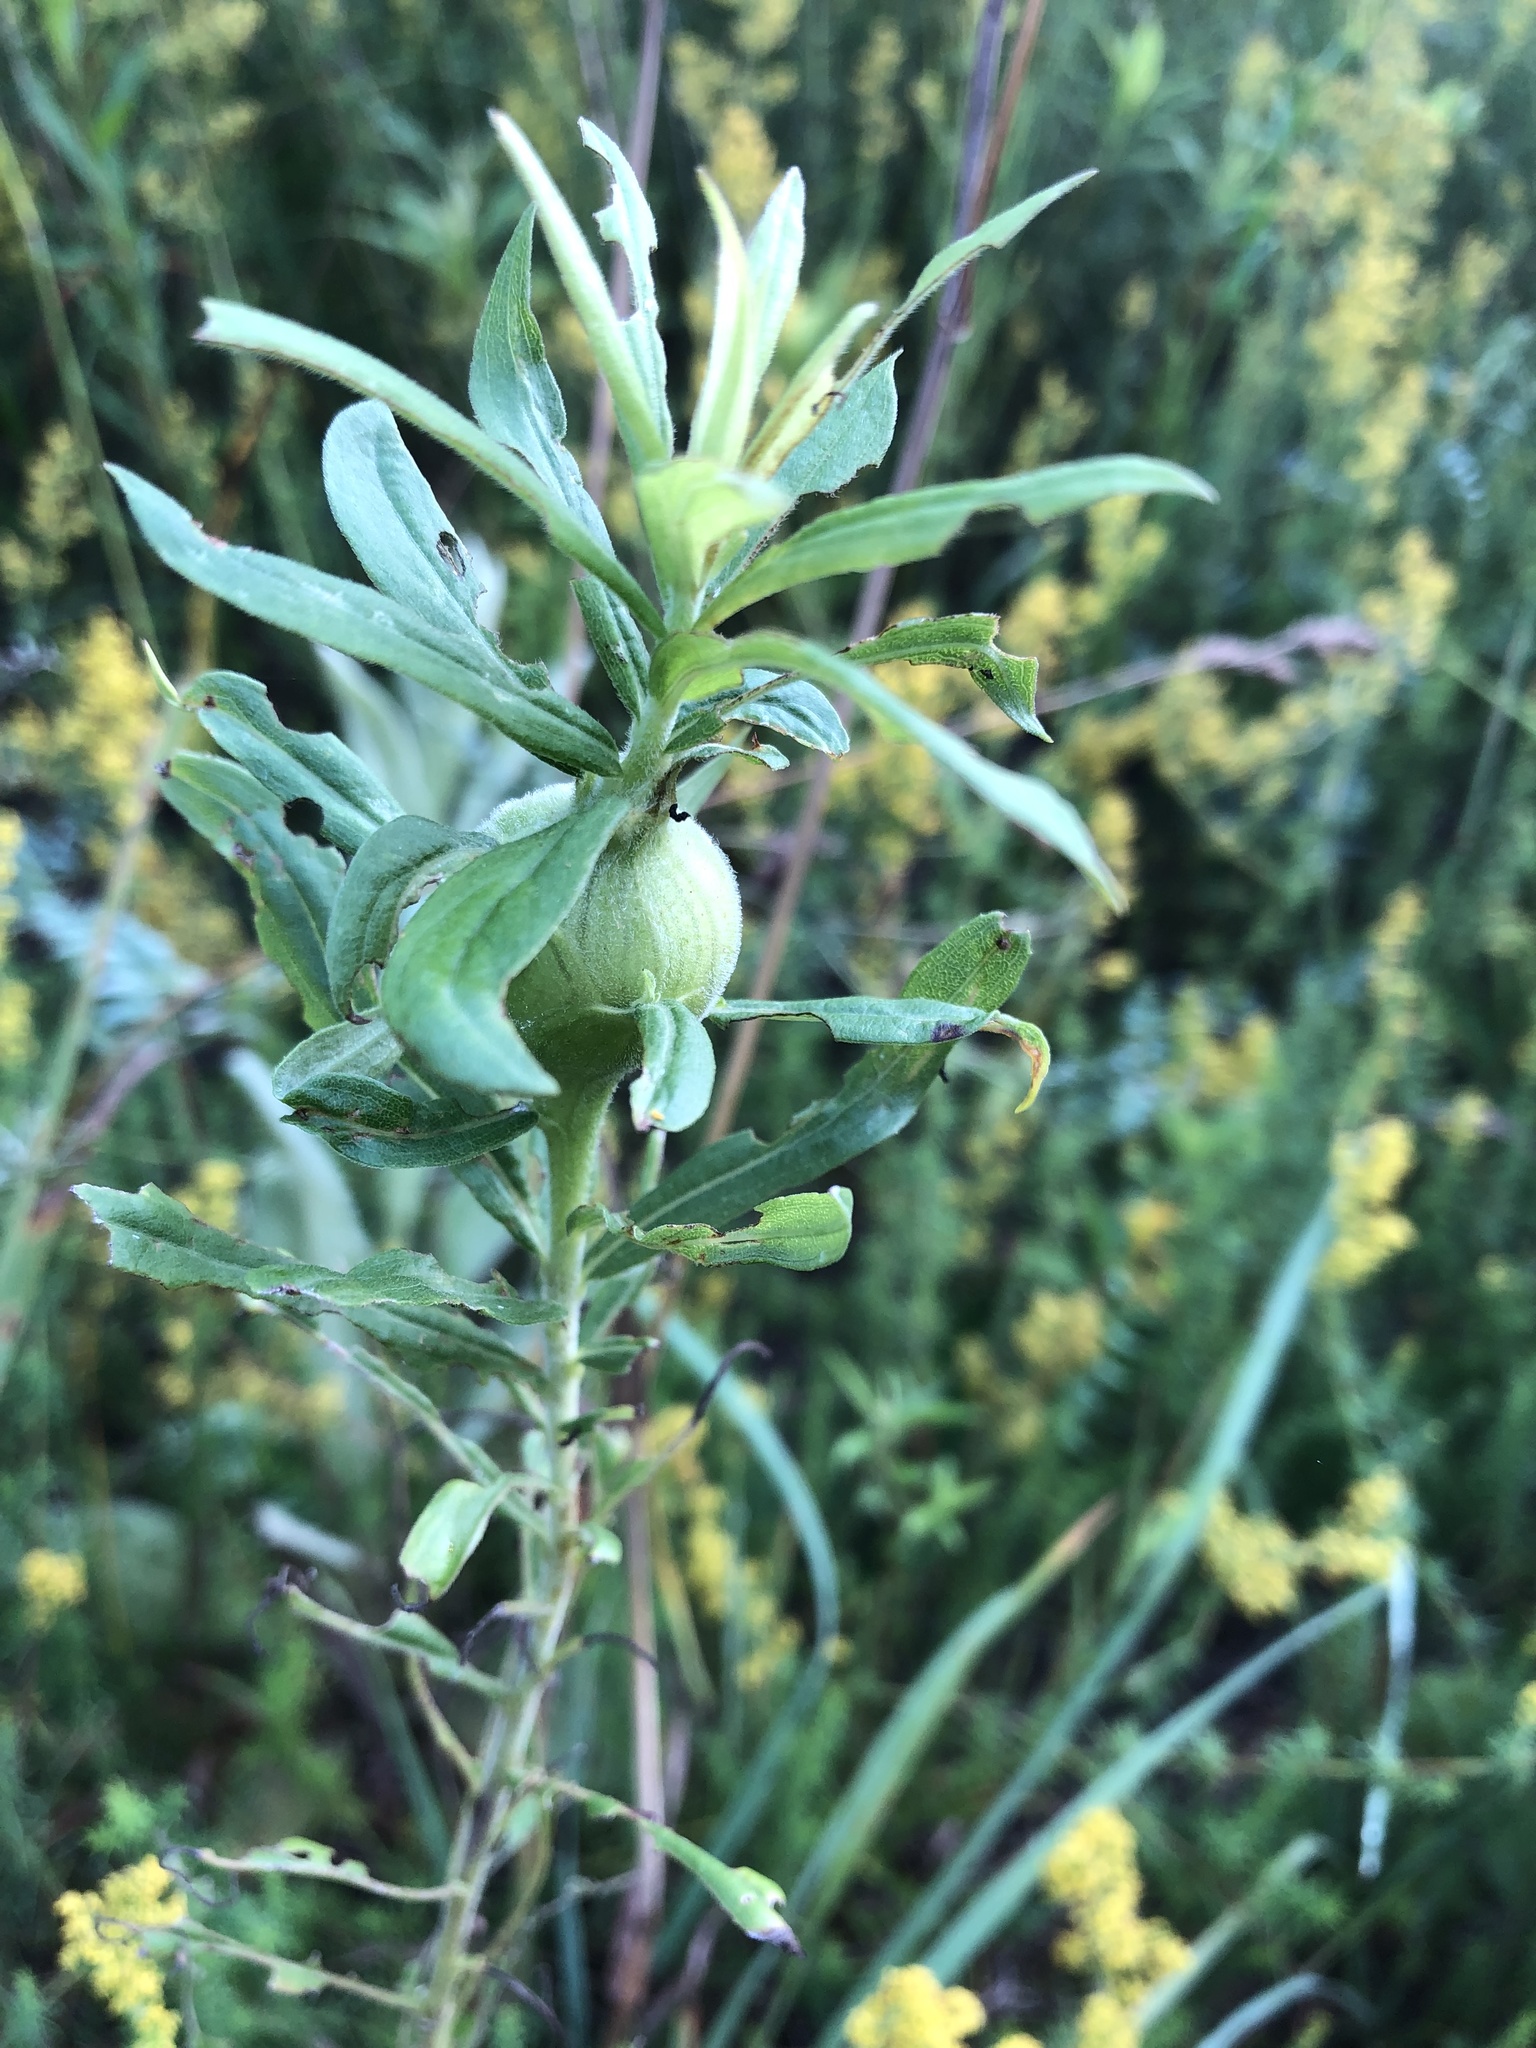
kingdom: Animalia
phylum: Arthropoda
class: Insecta
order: Diptera
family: Tephritidae
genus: Eurosta
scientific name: Eurosta solidaginis
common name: Goldenrod gall fly
